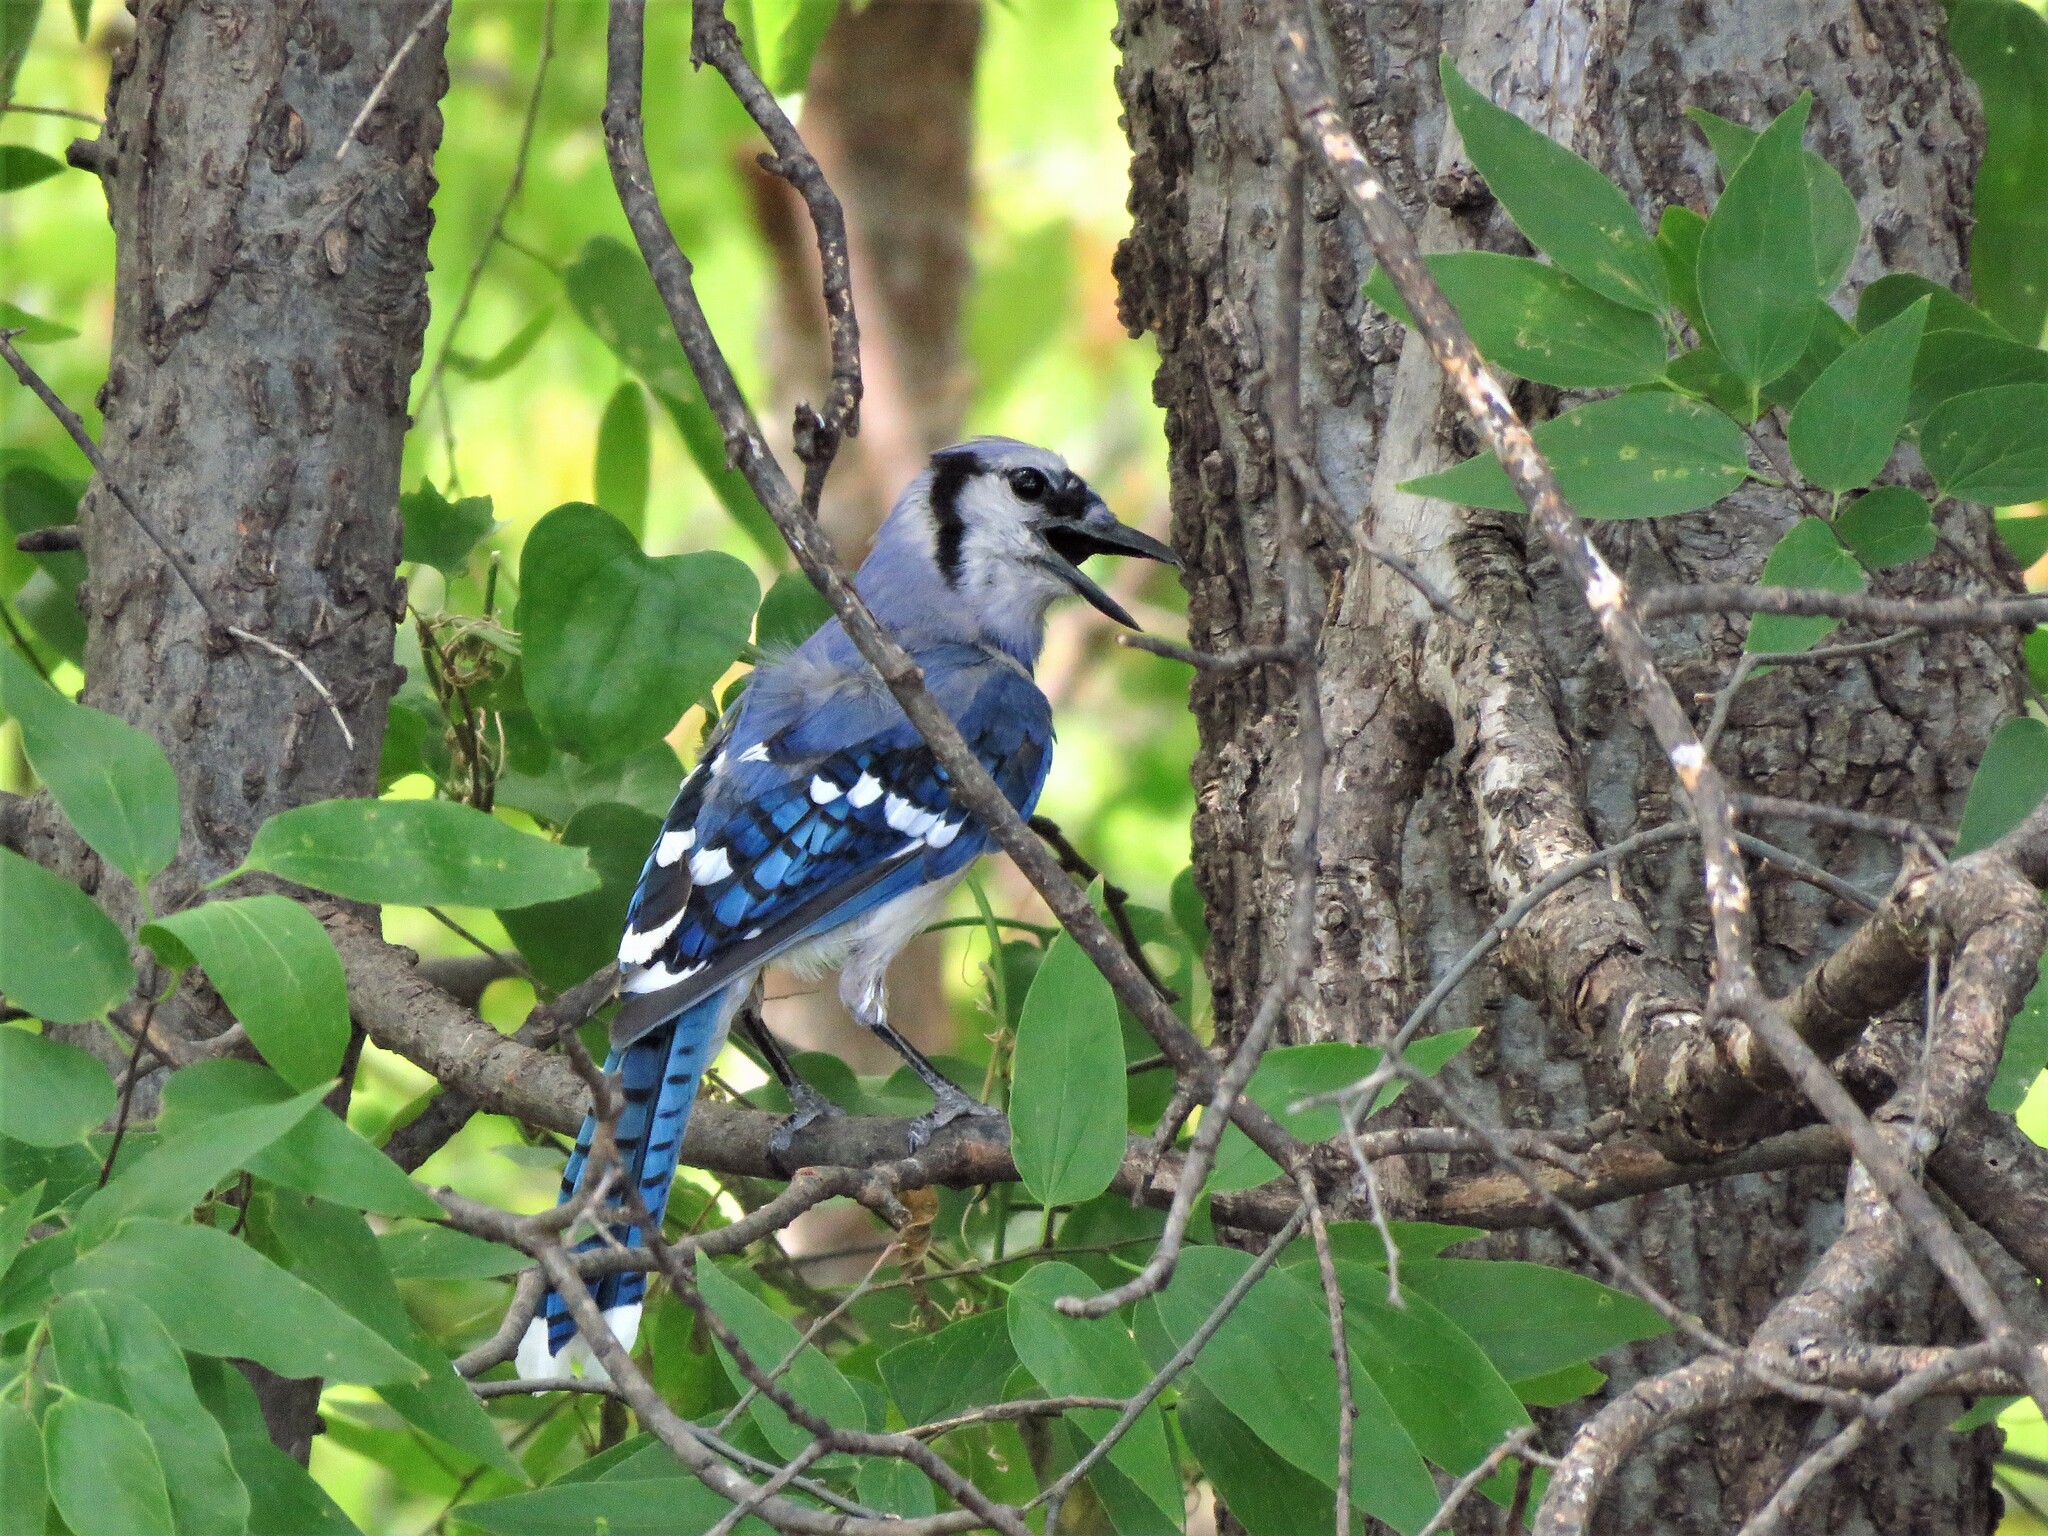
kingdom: Animalia
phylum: Chordata
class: Aves
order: Passeriformes
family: Corvidae
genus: Cyanocitta
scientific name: Cyanocitta cristata
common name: Blue jay
